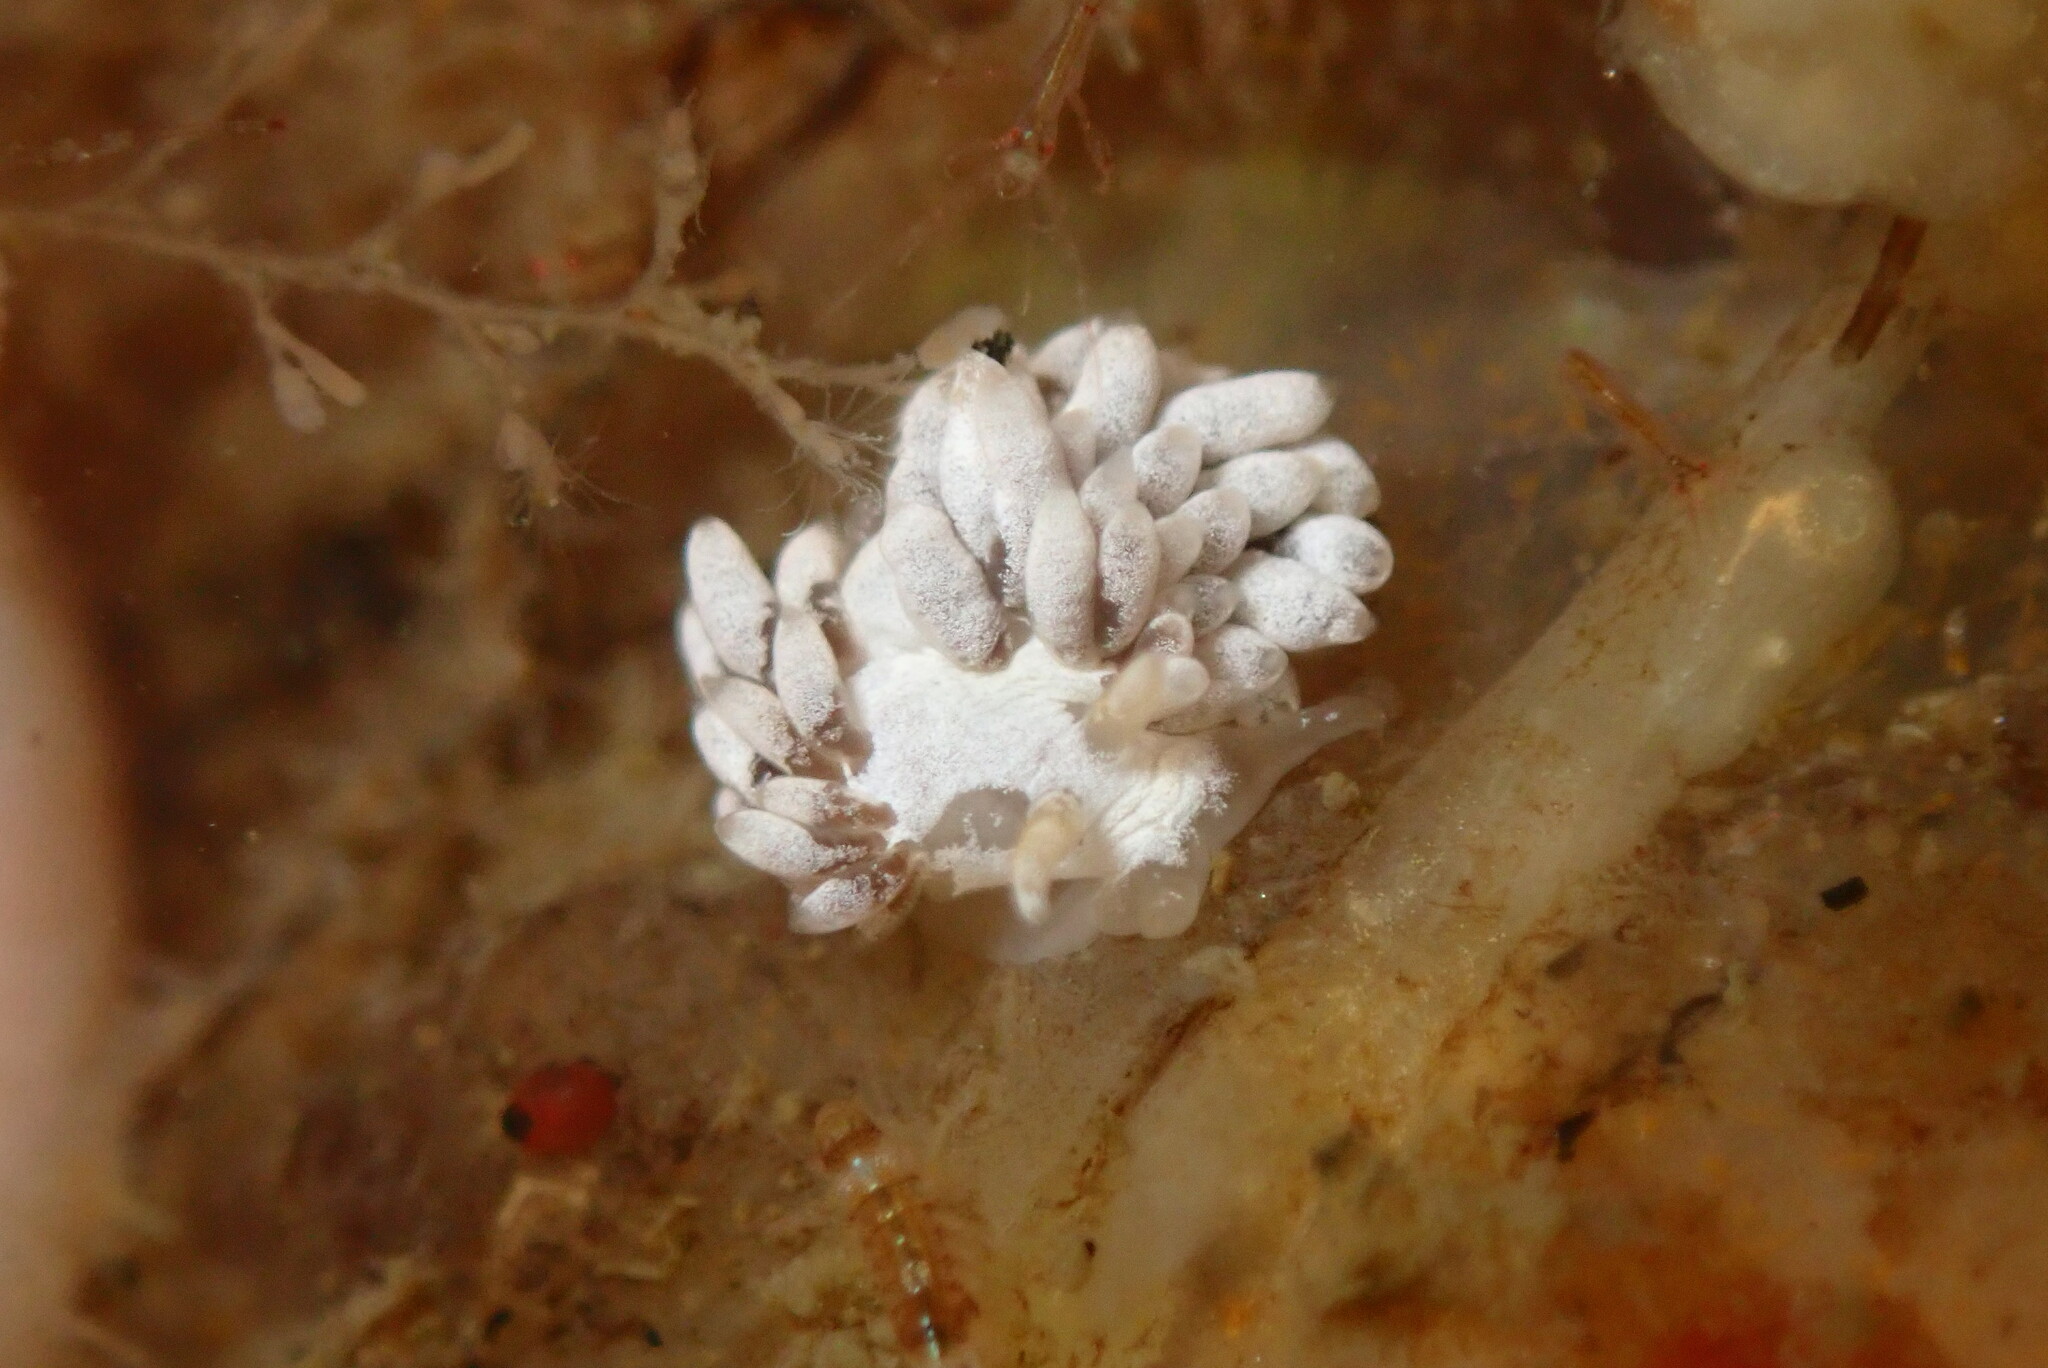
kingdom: Animalia
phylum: Mollusca
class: Gastropoda
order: Nudibranchia
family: Trinchesiidae
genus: Trinchesia
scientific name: Trinchesia albocrusta
